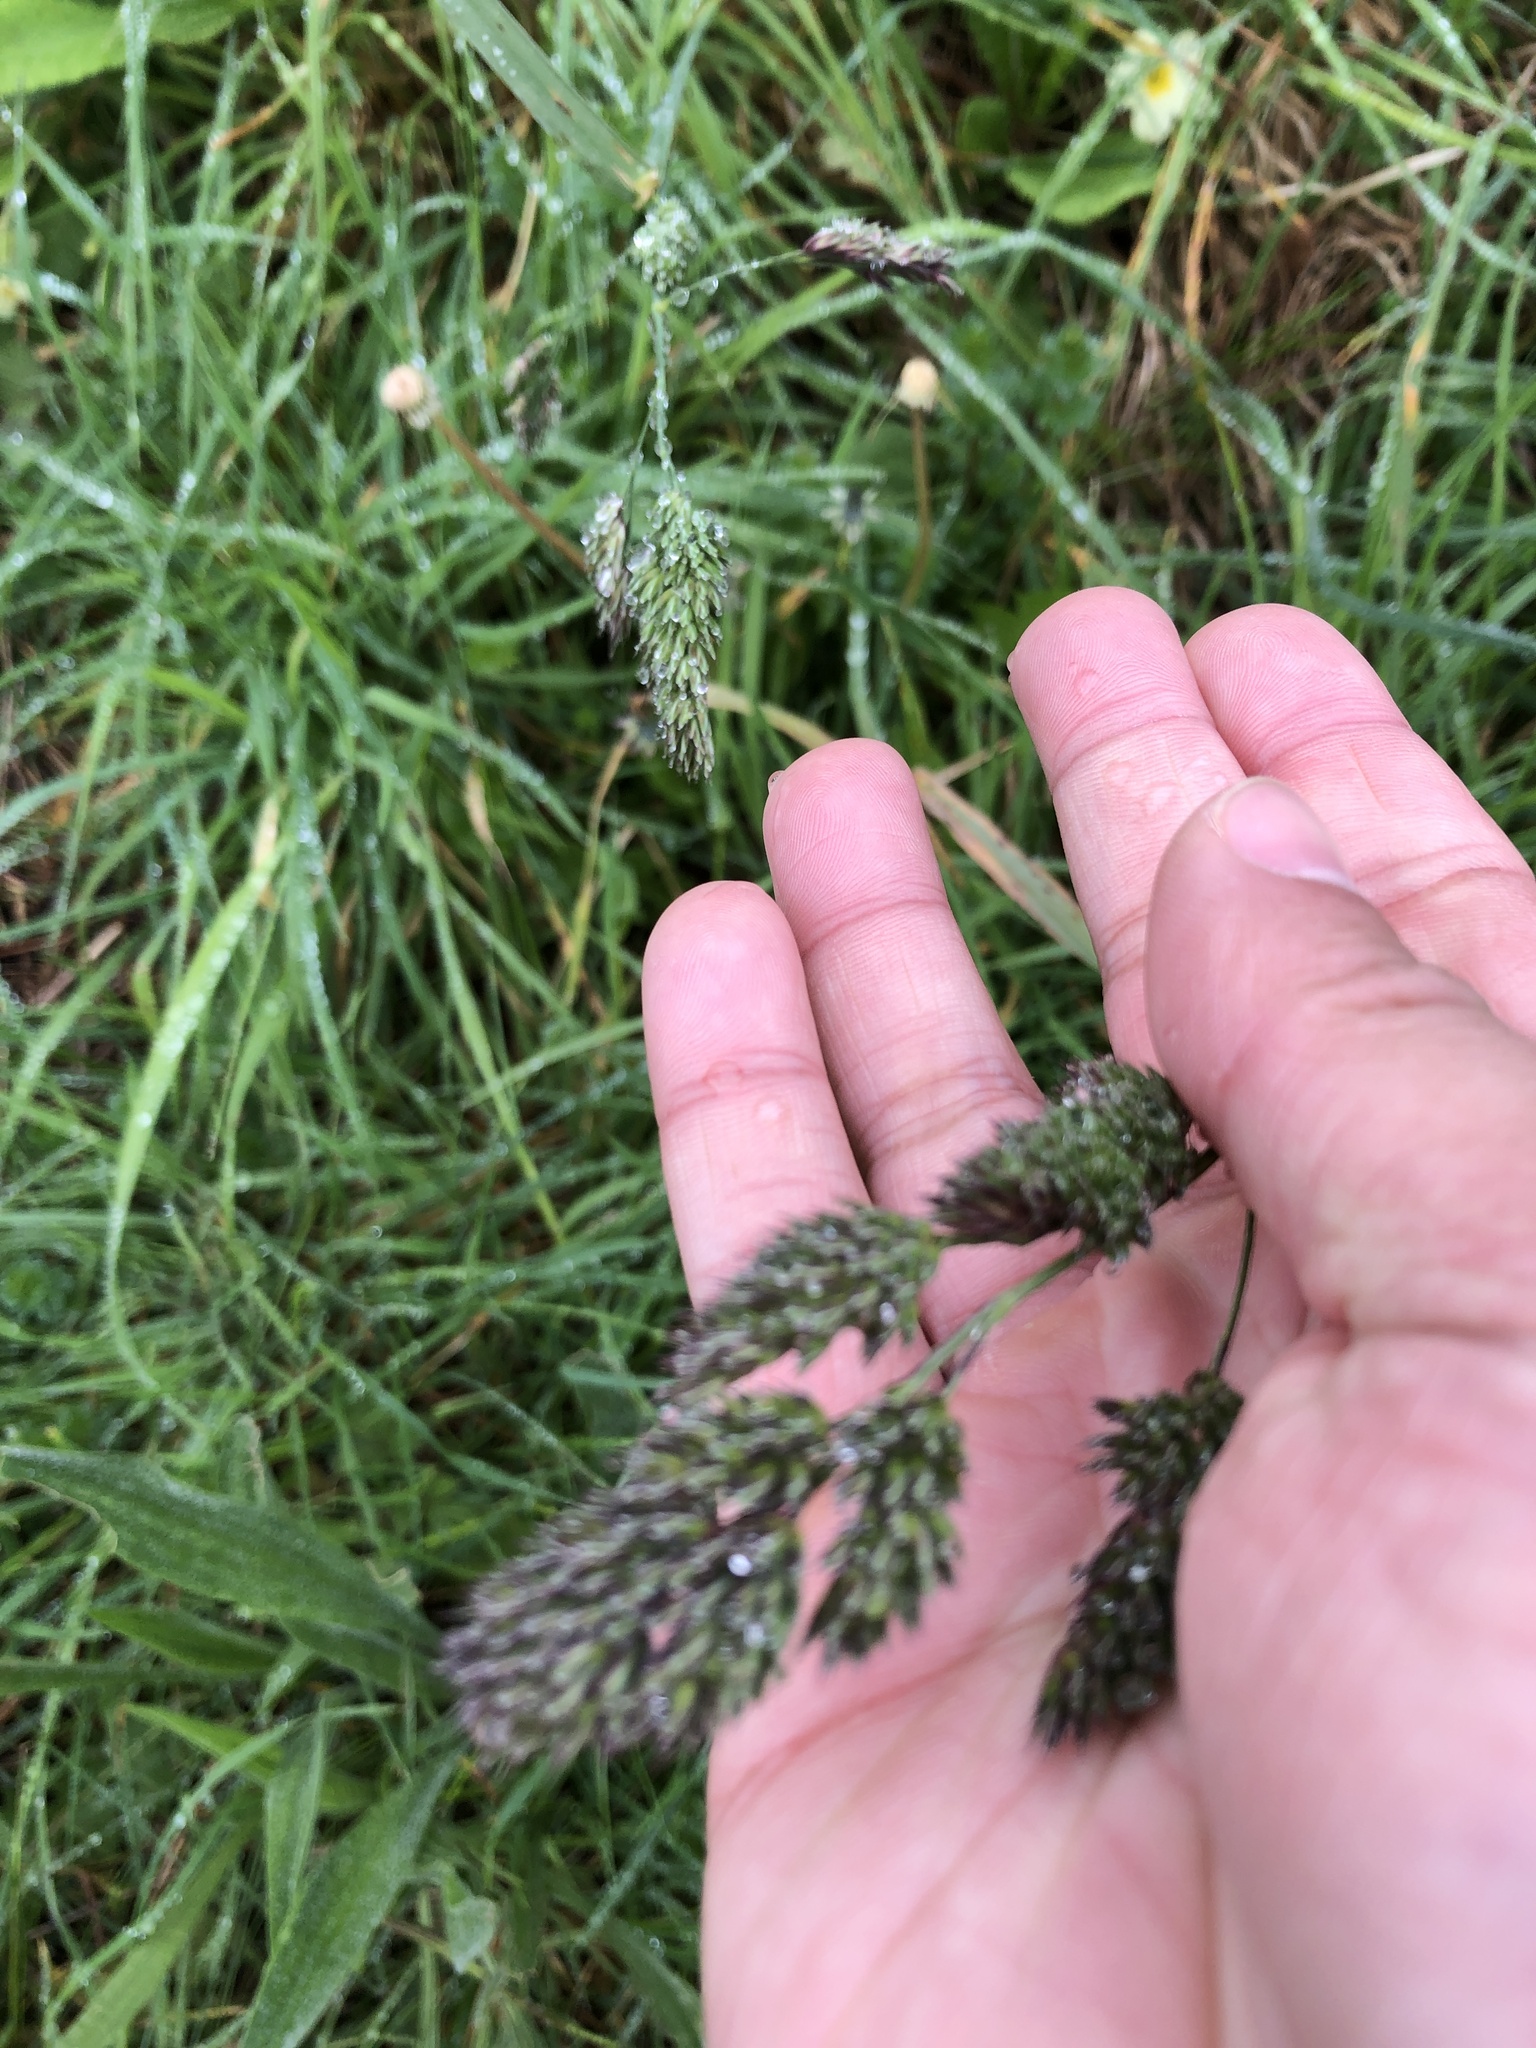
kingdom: Plantae
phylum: Tracheophyta
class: Liliopsida
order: Poales
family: Poaceae
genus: Dactylis
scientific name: Dactylis glomerata
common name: Orchardgrass
